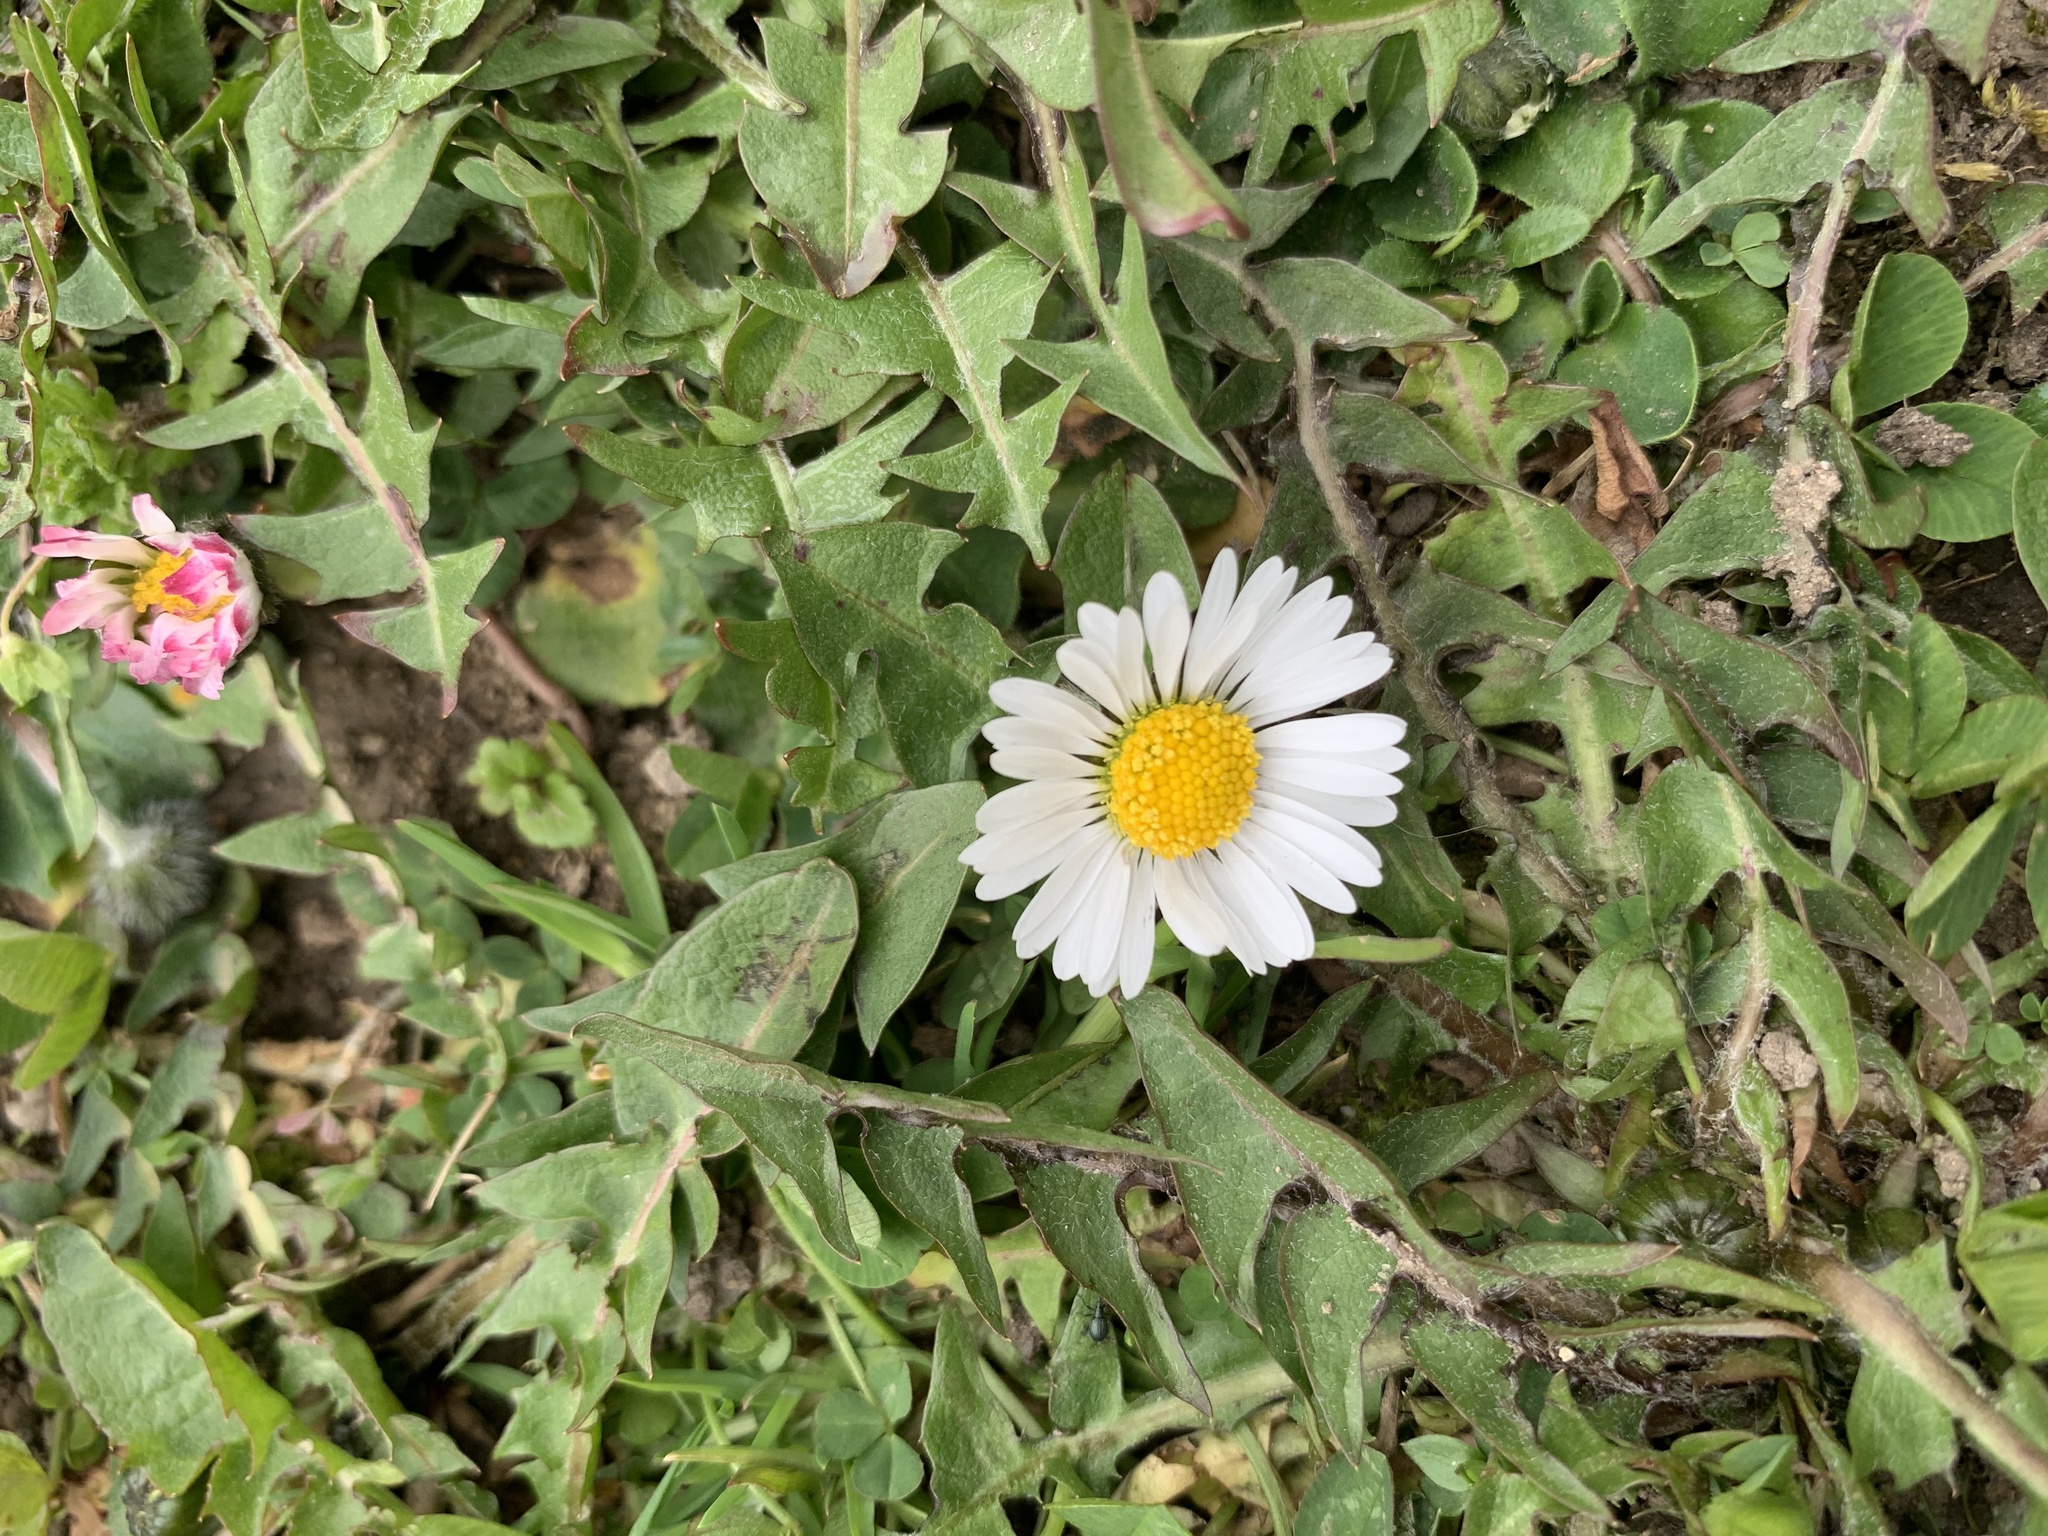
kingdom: Plantae
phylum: Tracheophyta
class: Magnoliopsida
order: Asterales
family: Asteraceae
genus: Bellis
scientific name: Bellis perennis
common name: Lawndaisy
